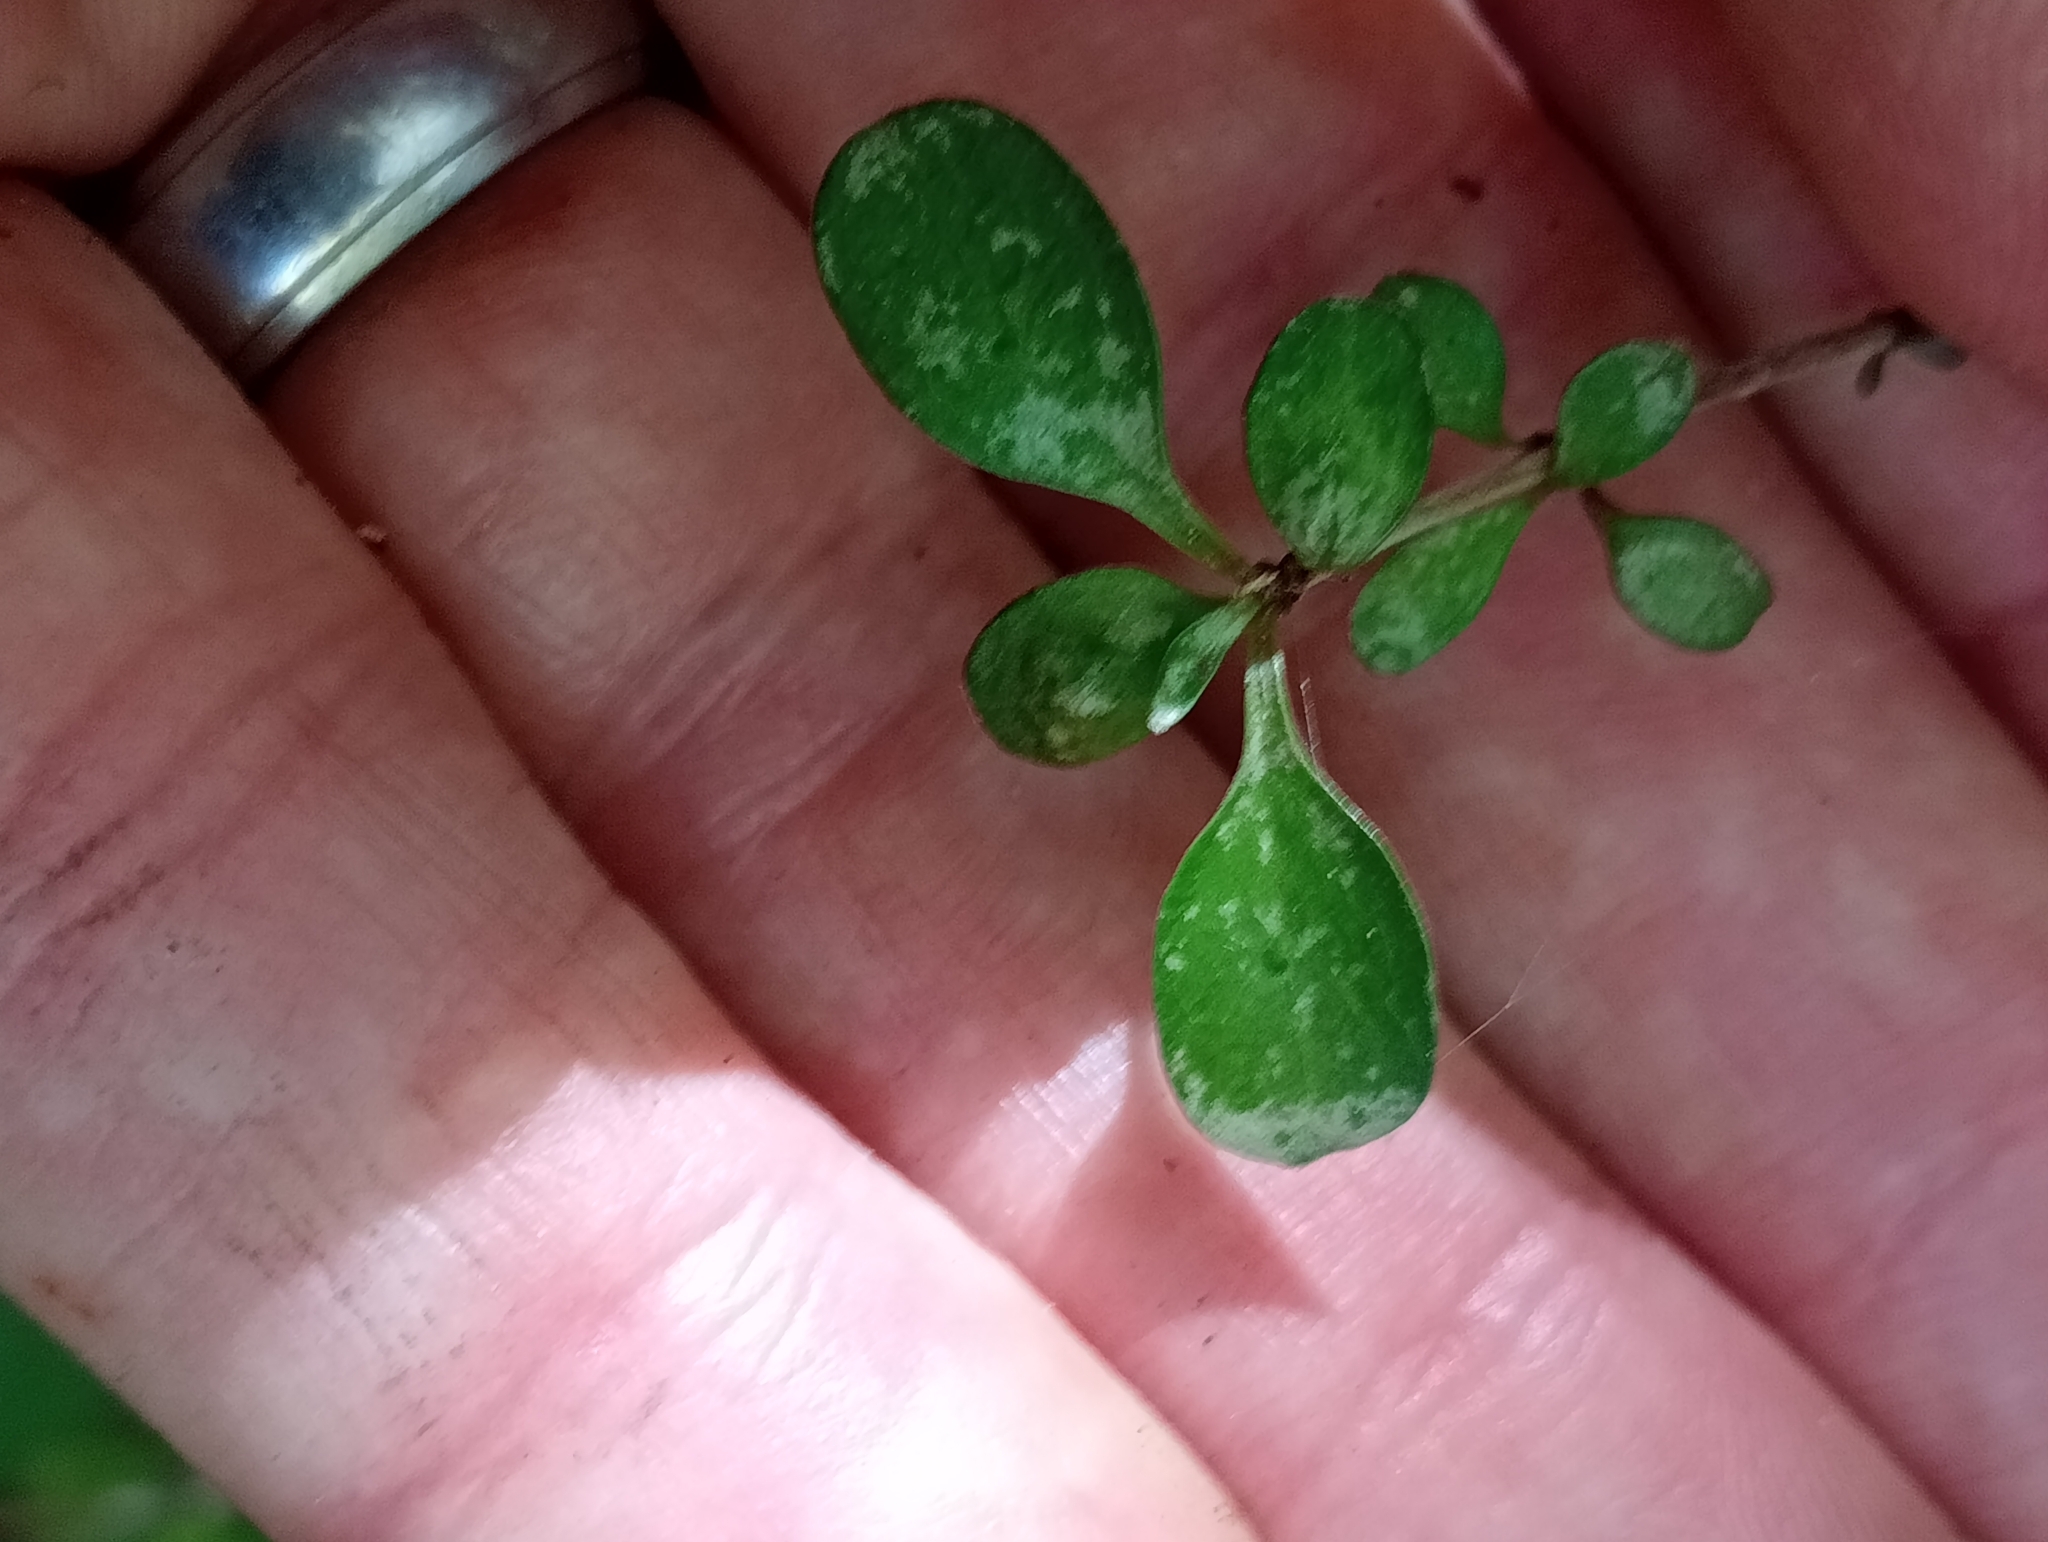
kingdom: Plantae
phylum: Tracheophyta
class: Magnoliopsida
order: Gentianales
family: Rubiaceae
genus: Coprosma
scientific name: Coprosma rigida
